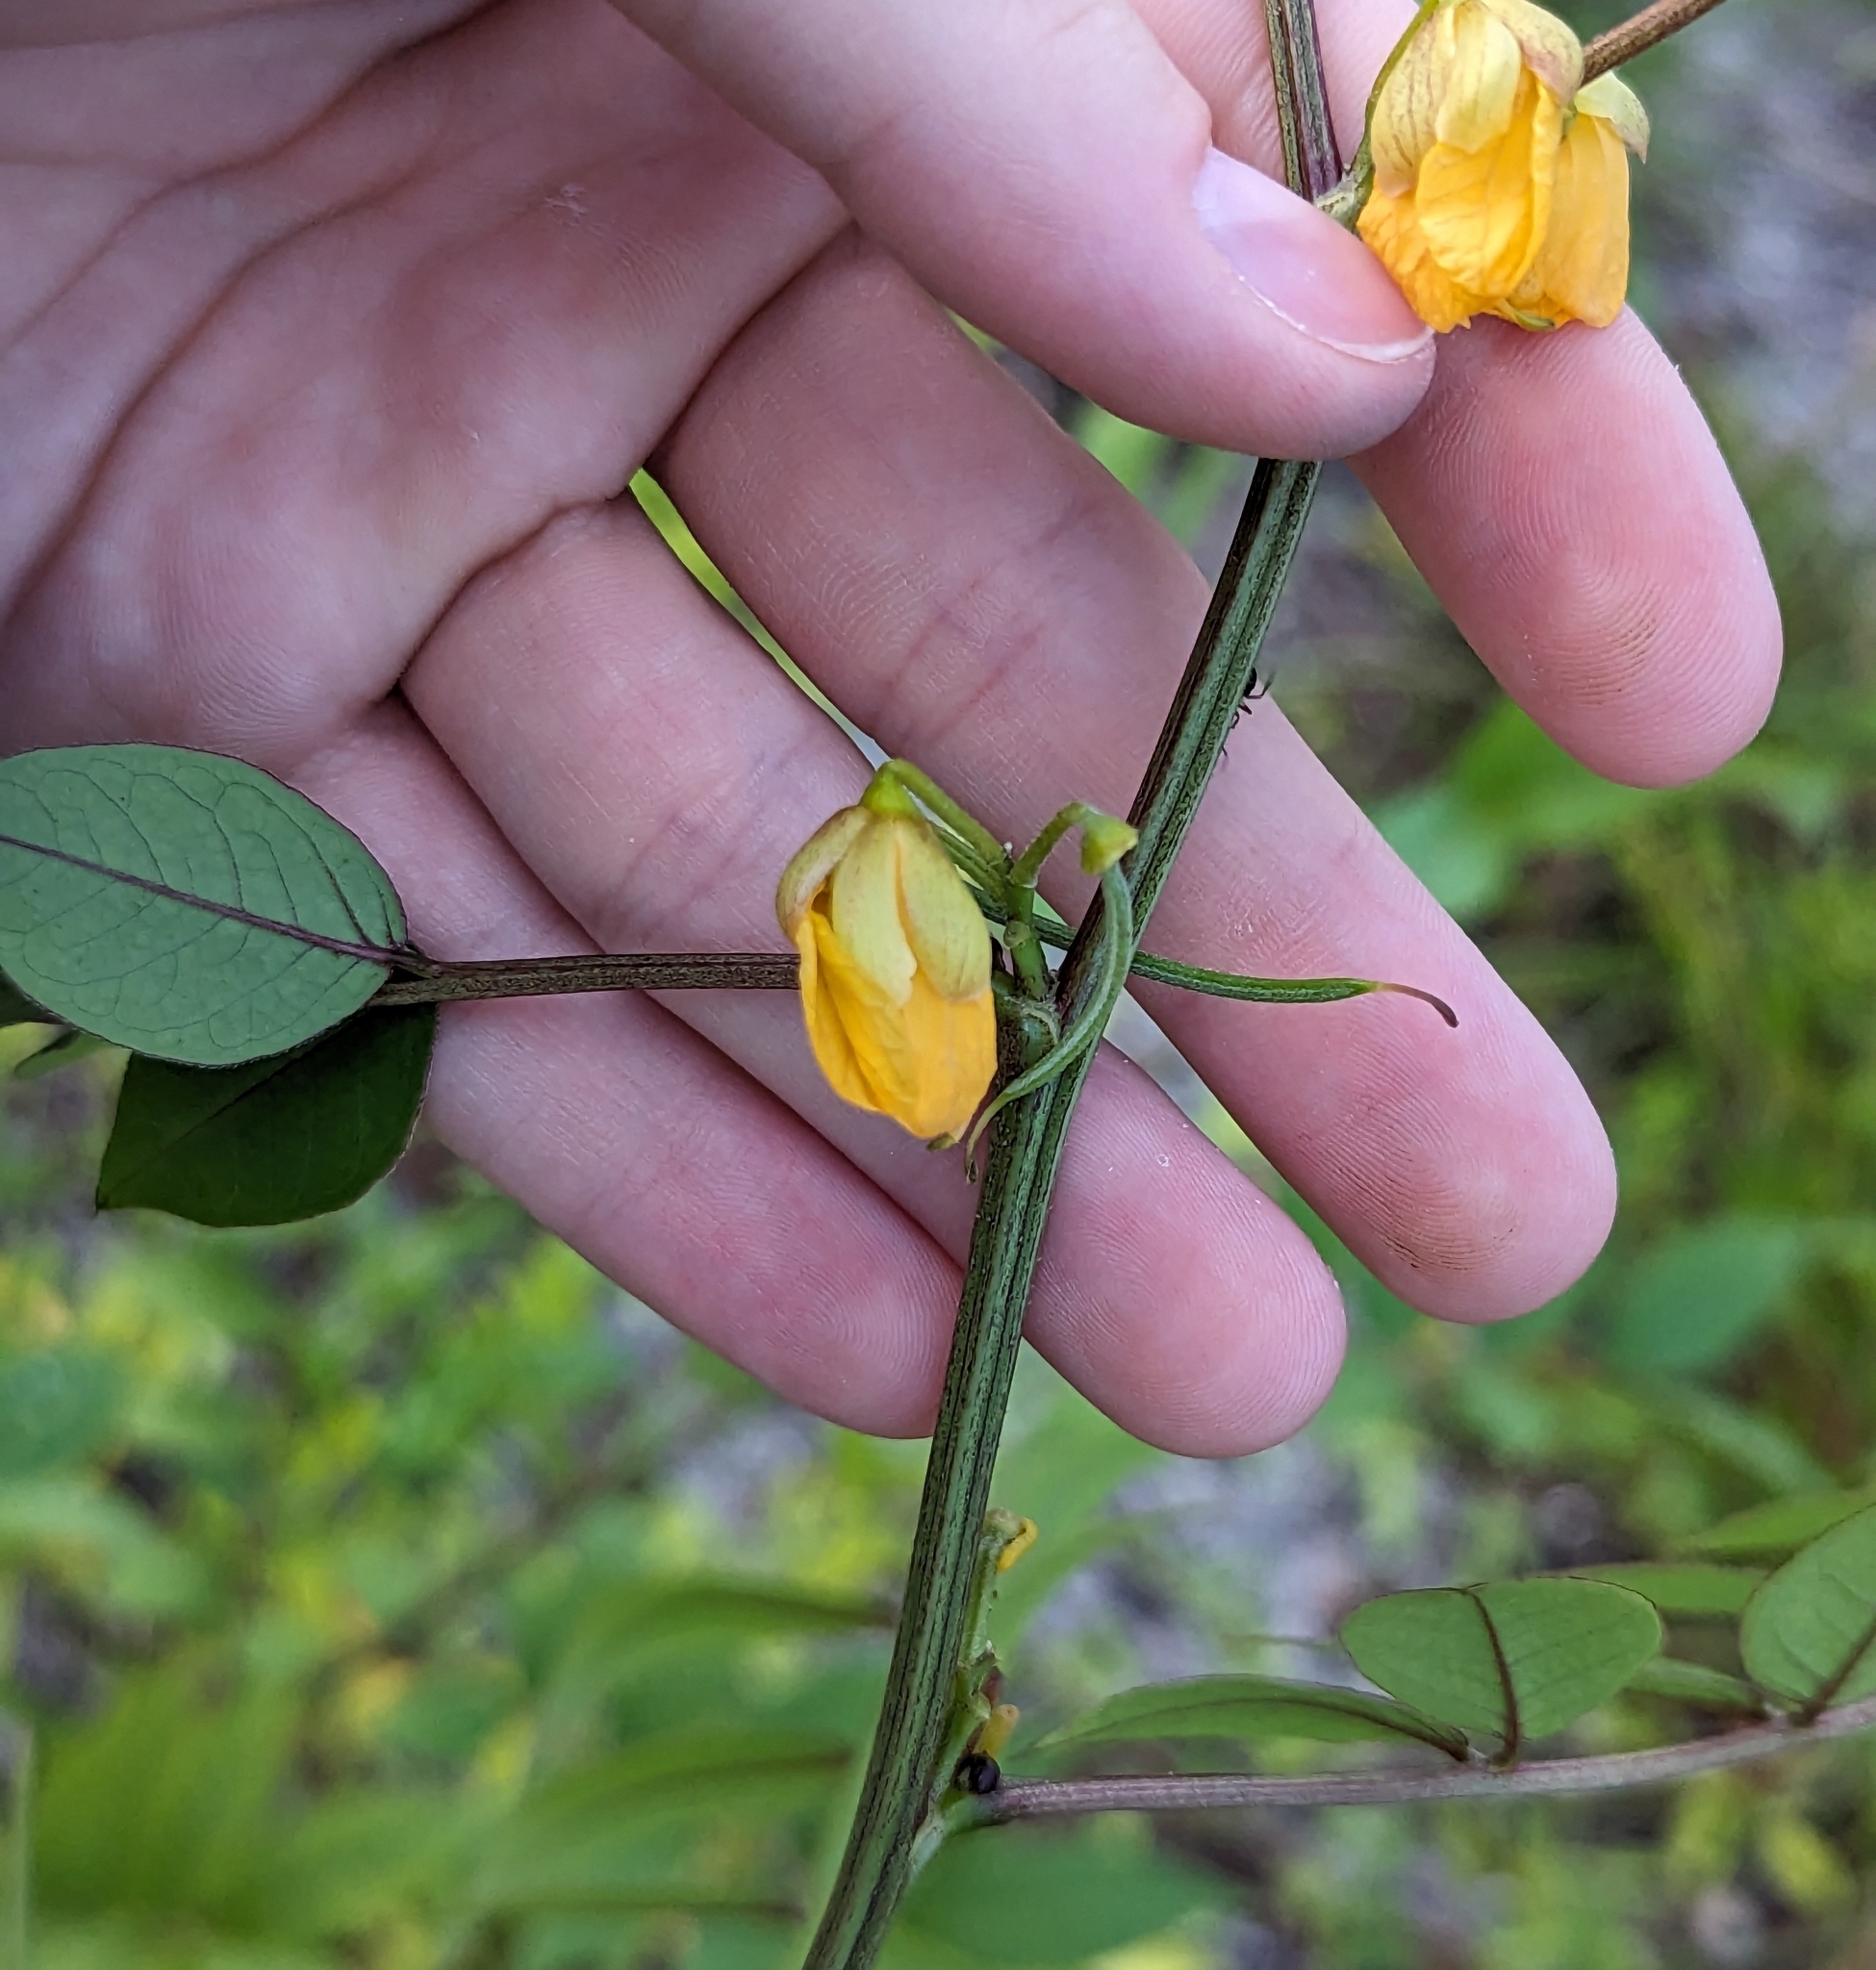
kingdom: Plantae
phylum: Tracheophyta
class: Magnoliopsida
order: Fabales
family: Fabaceae
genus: Senna
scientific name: Senna occidentalis
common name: Septicweed
